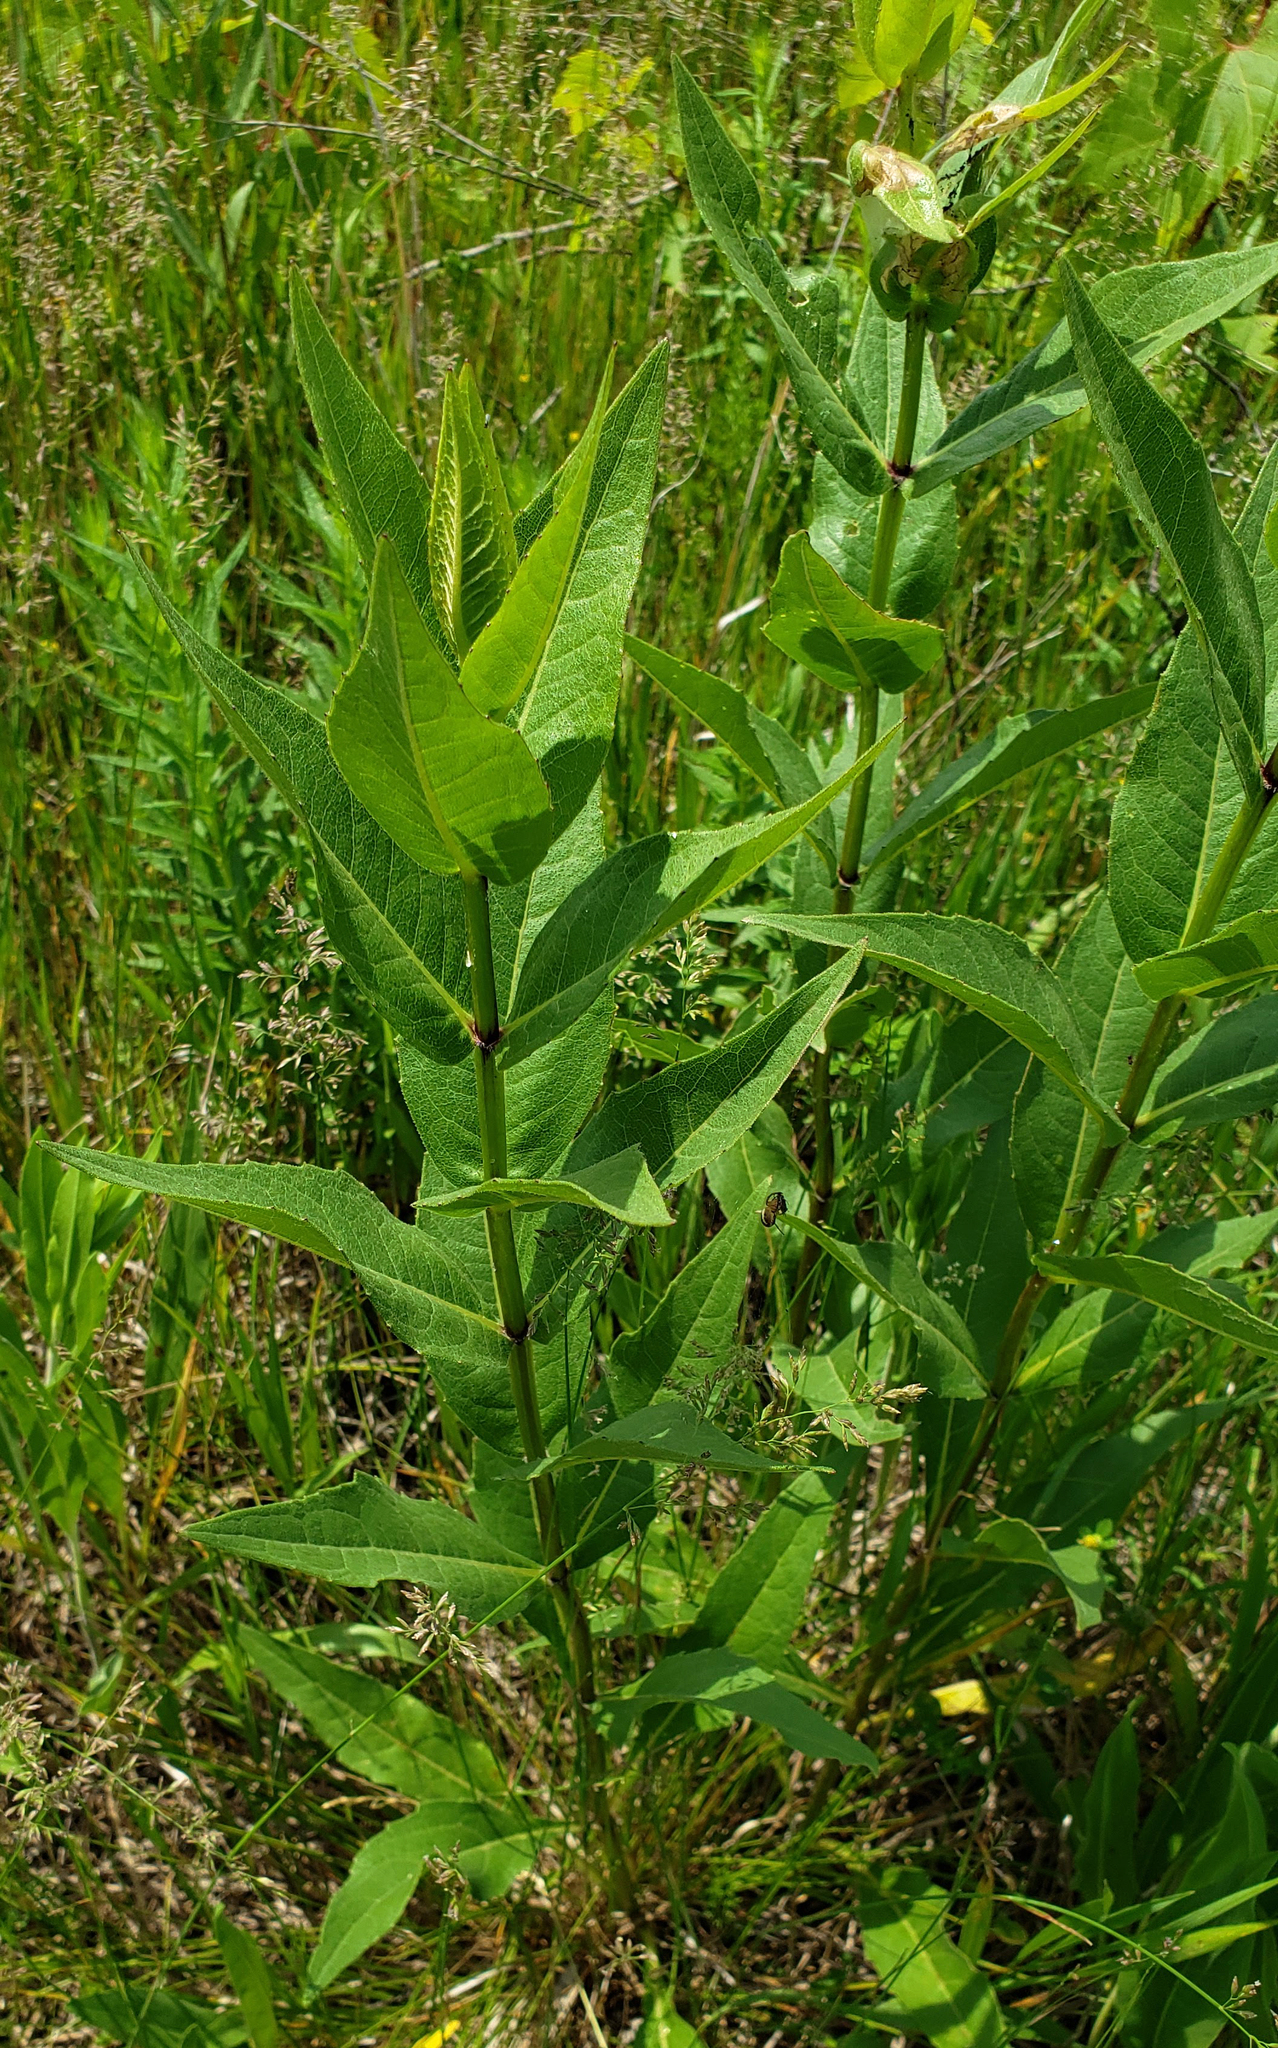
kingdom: Plantae
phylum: Tracheophyta
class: Magnoliopsida
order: Asterales
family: Asteraceae
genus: Silphium
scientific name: Silphium integrifolium
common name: Whole-leaf rosinweed
